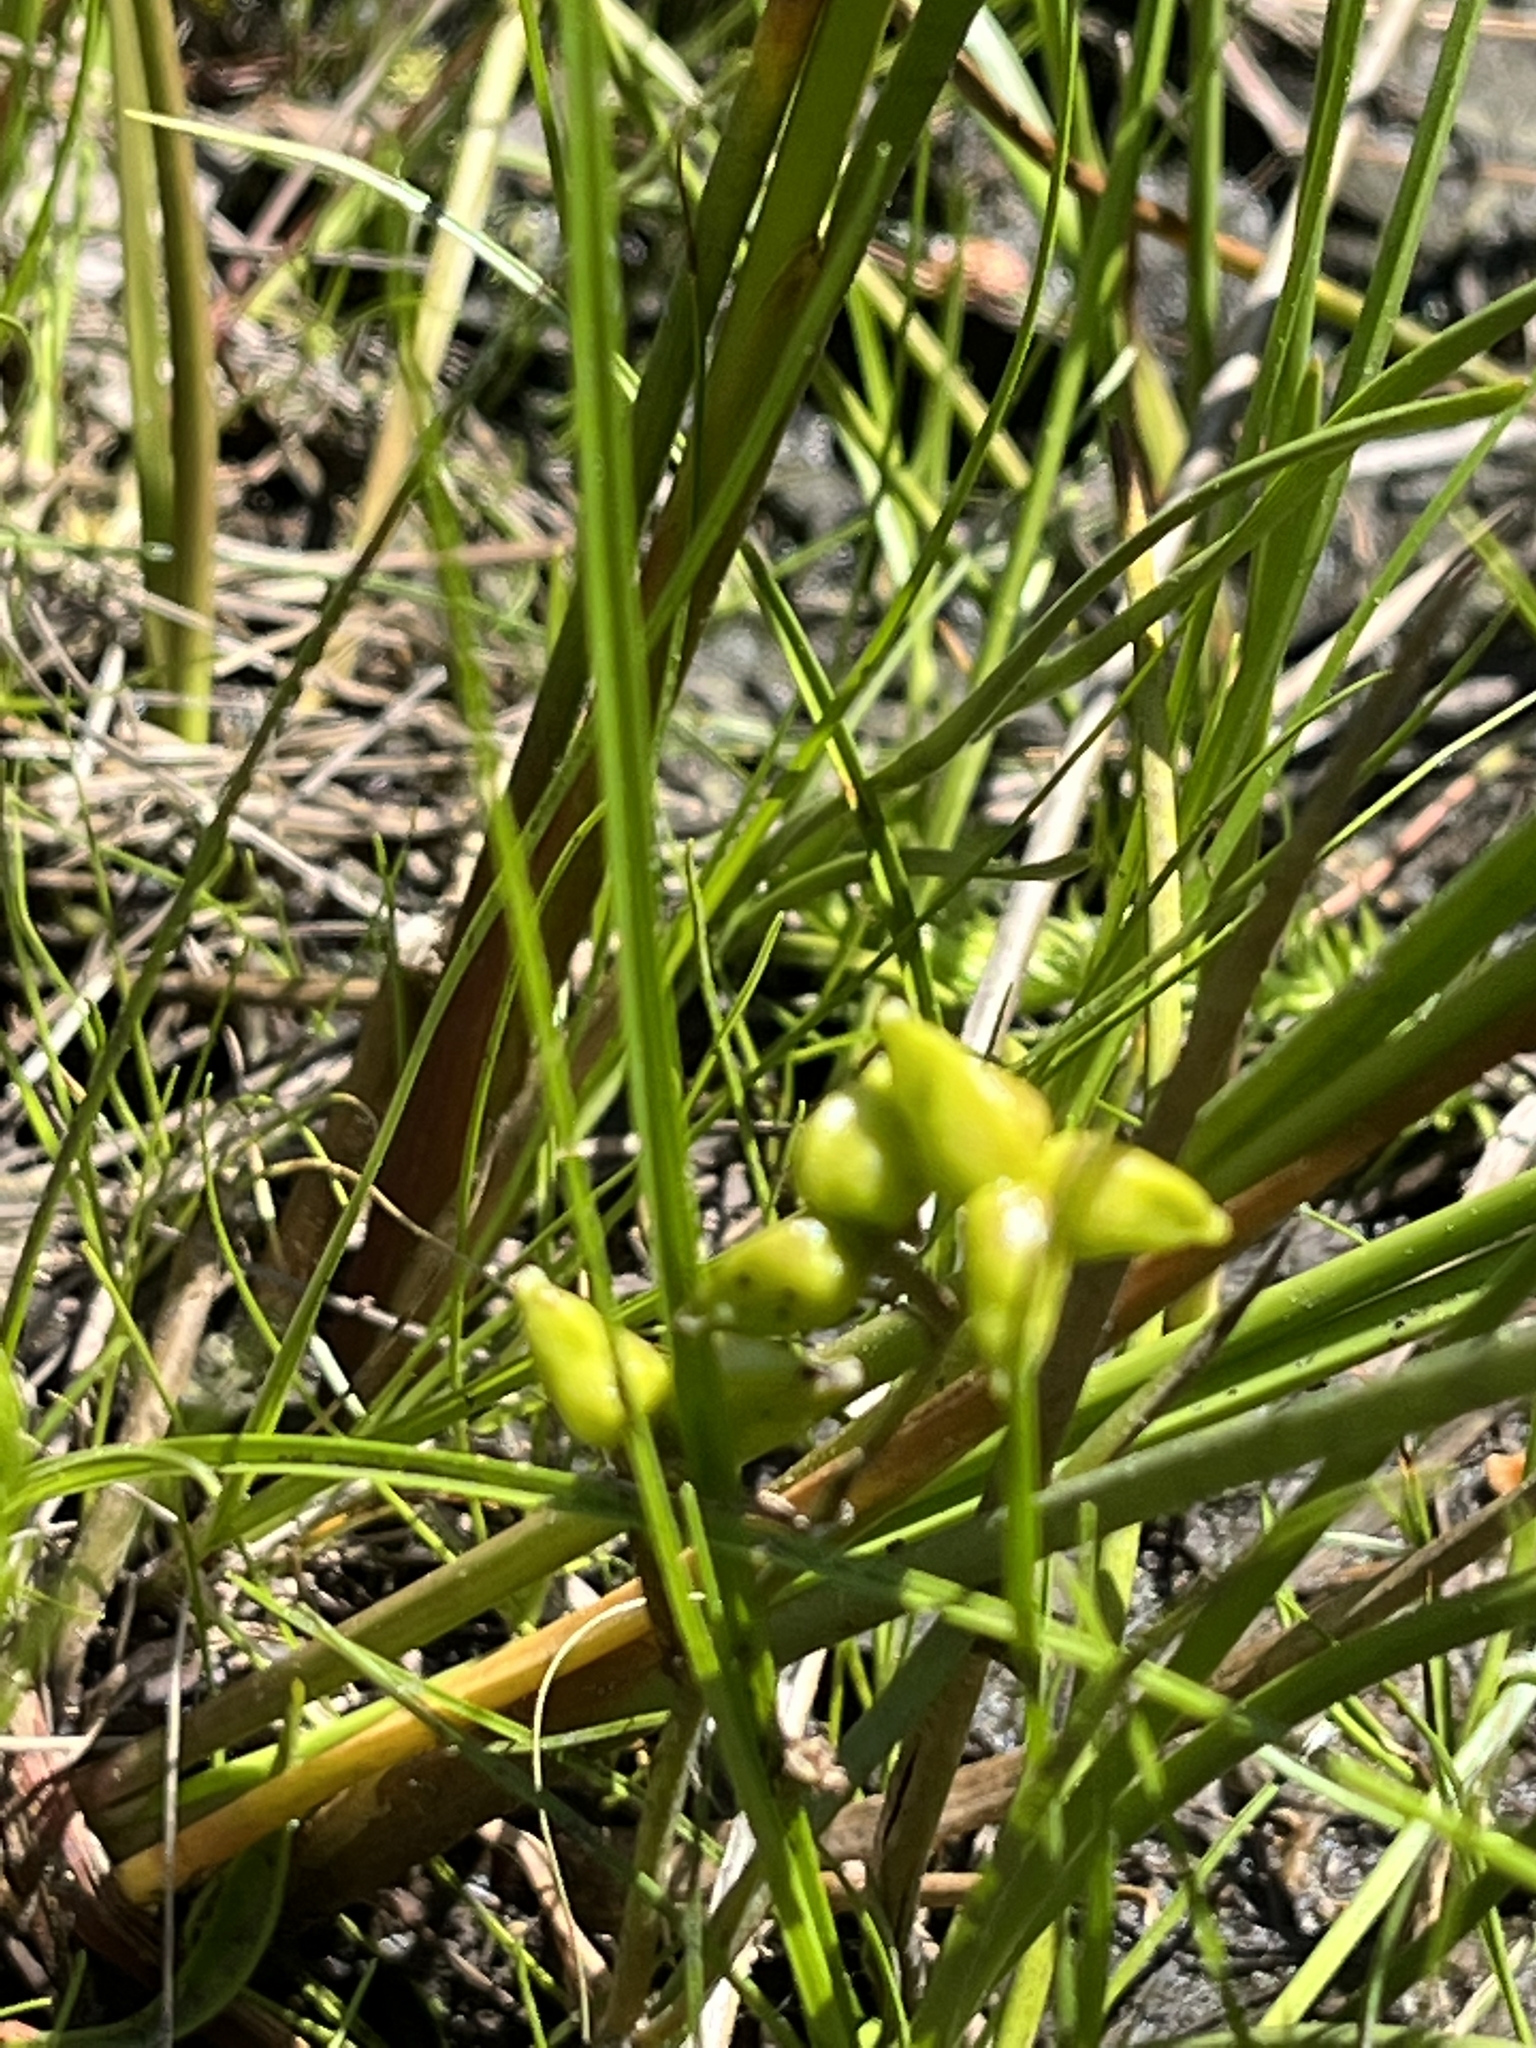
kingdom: Plantae
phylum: Tracheophyta
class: Liliopsida
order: Alismatales
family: Scheuchzeriaceae
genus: Scheuchzeria
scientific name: Scheuchzeria palustris
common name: Rannoch-rush
